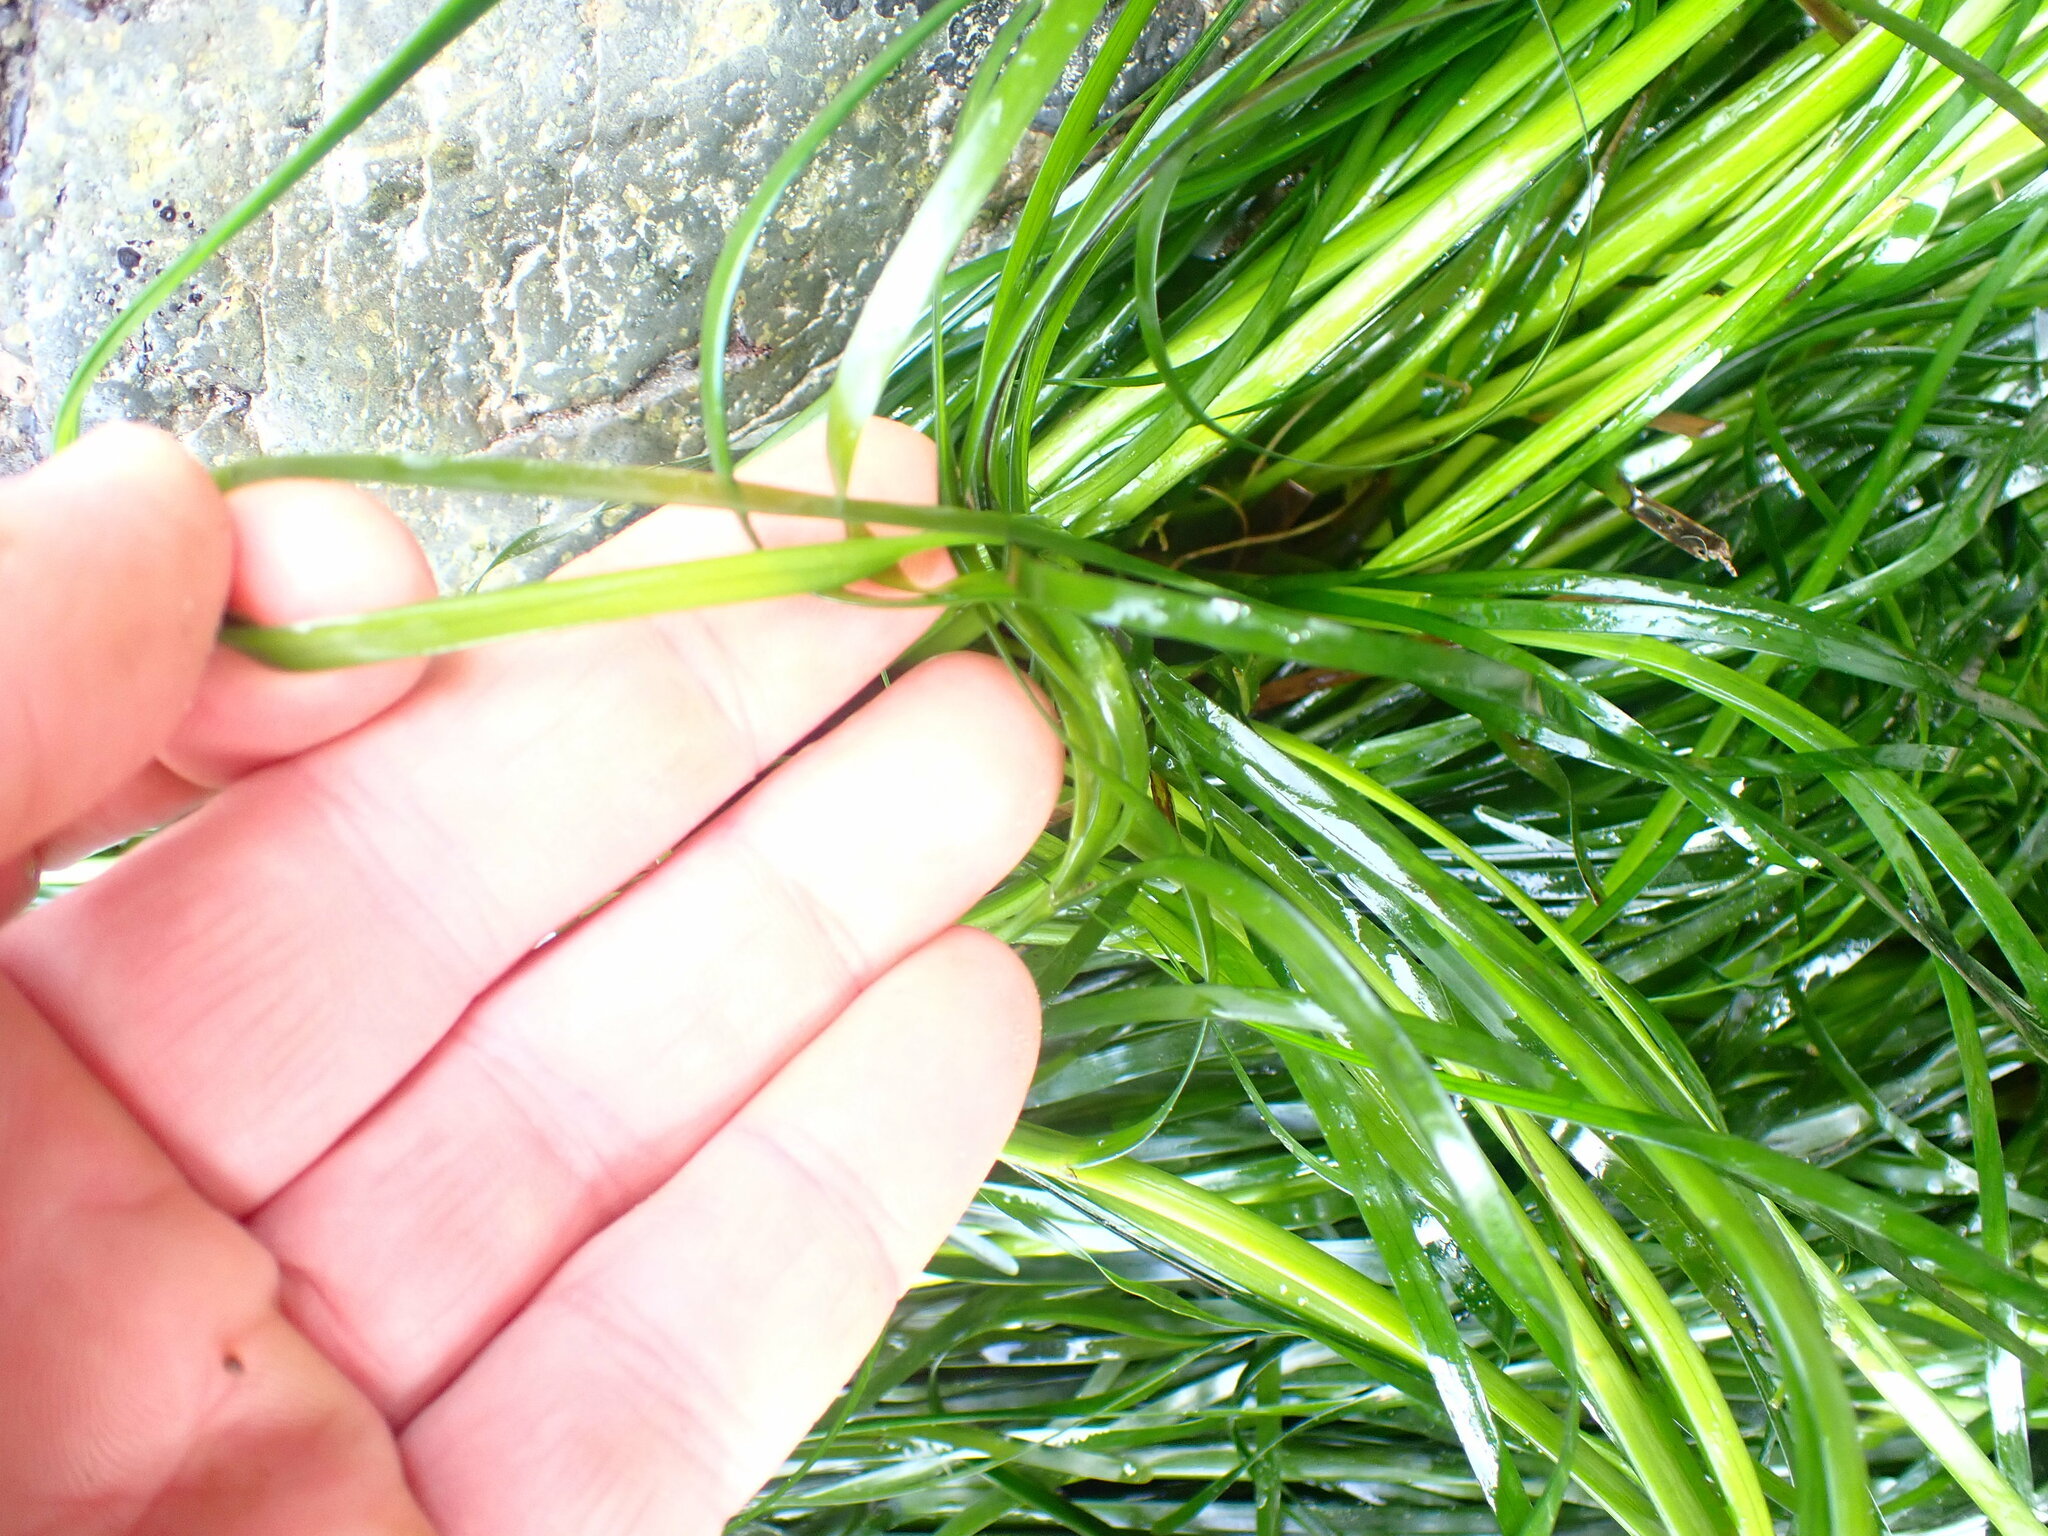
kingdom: Plantae
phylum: Tracheophyta
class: Liliopsida
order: Alismatales
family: Zosteraceae
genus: Phyllospadix
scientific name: Phyllospadix torreyi
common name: Surfgrass
